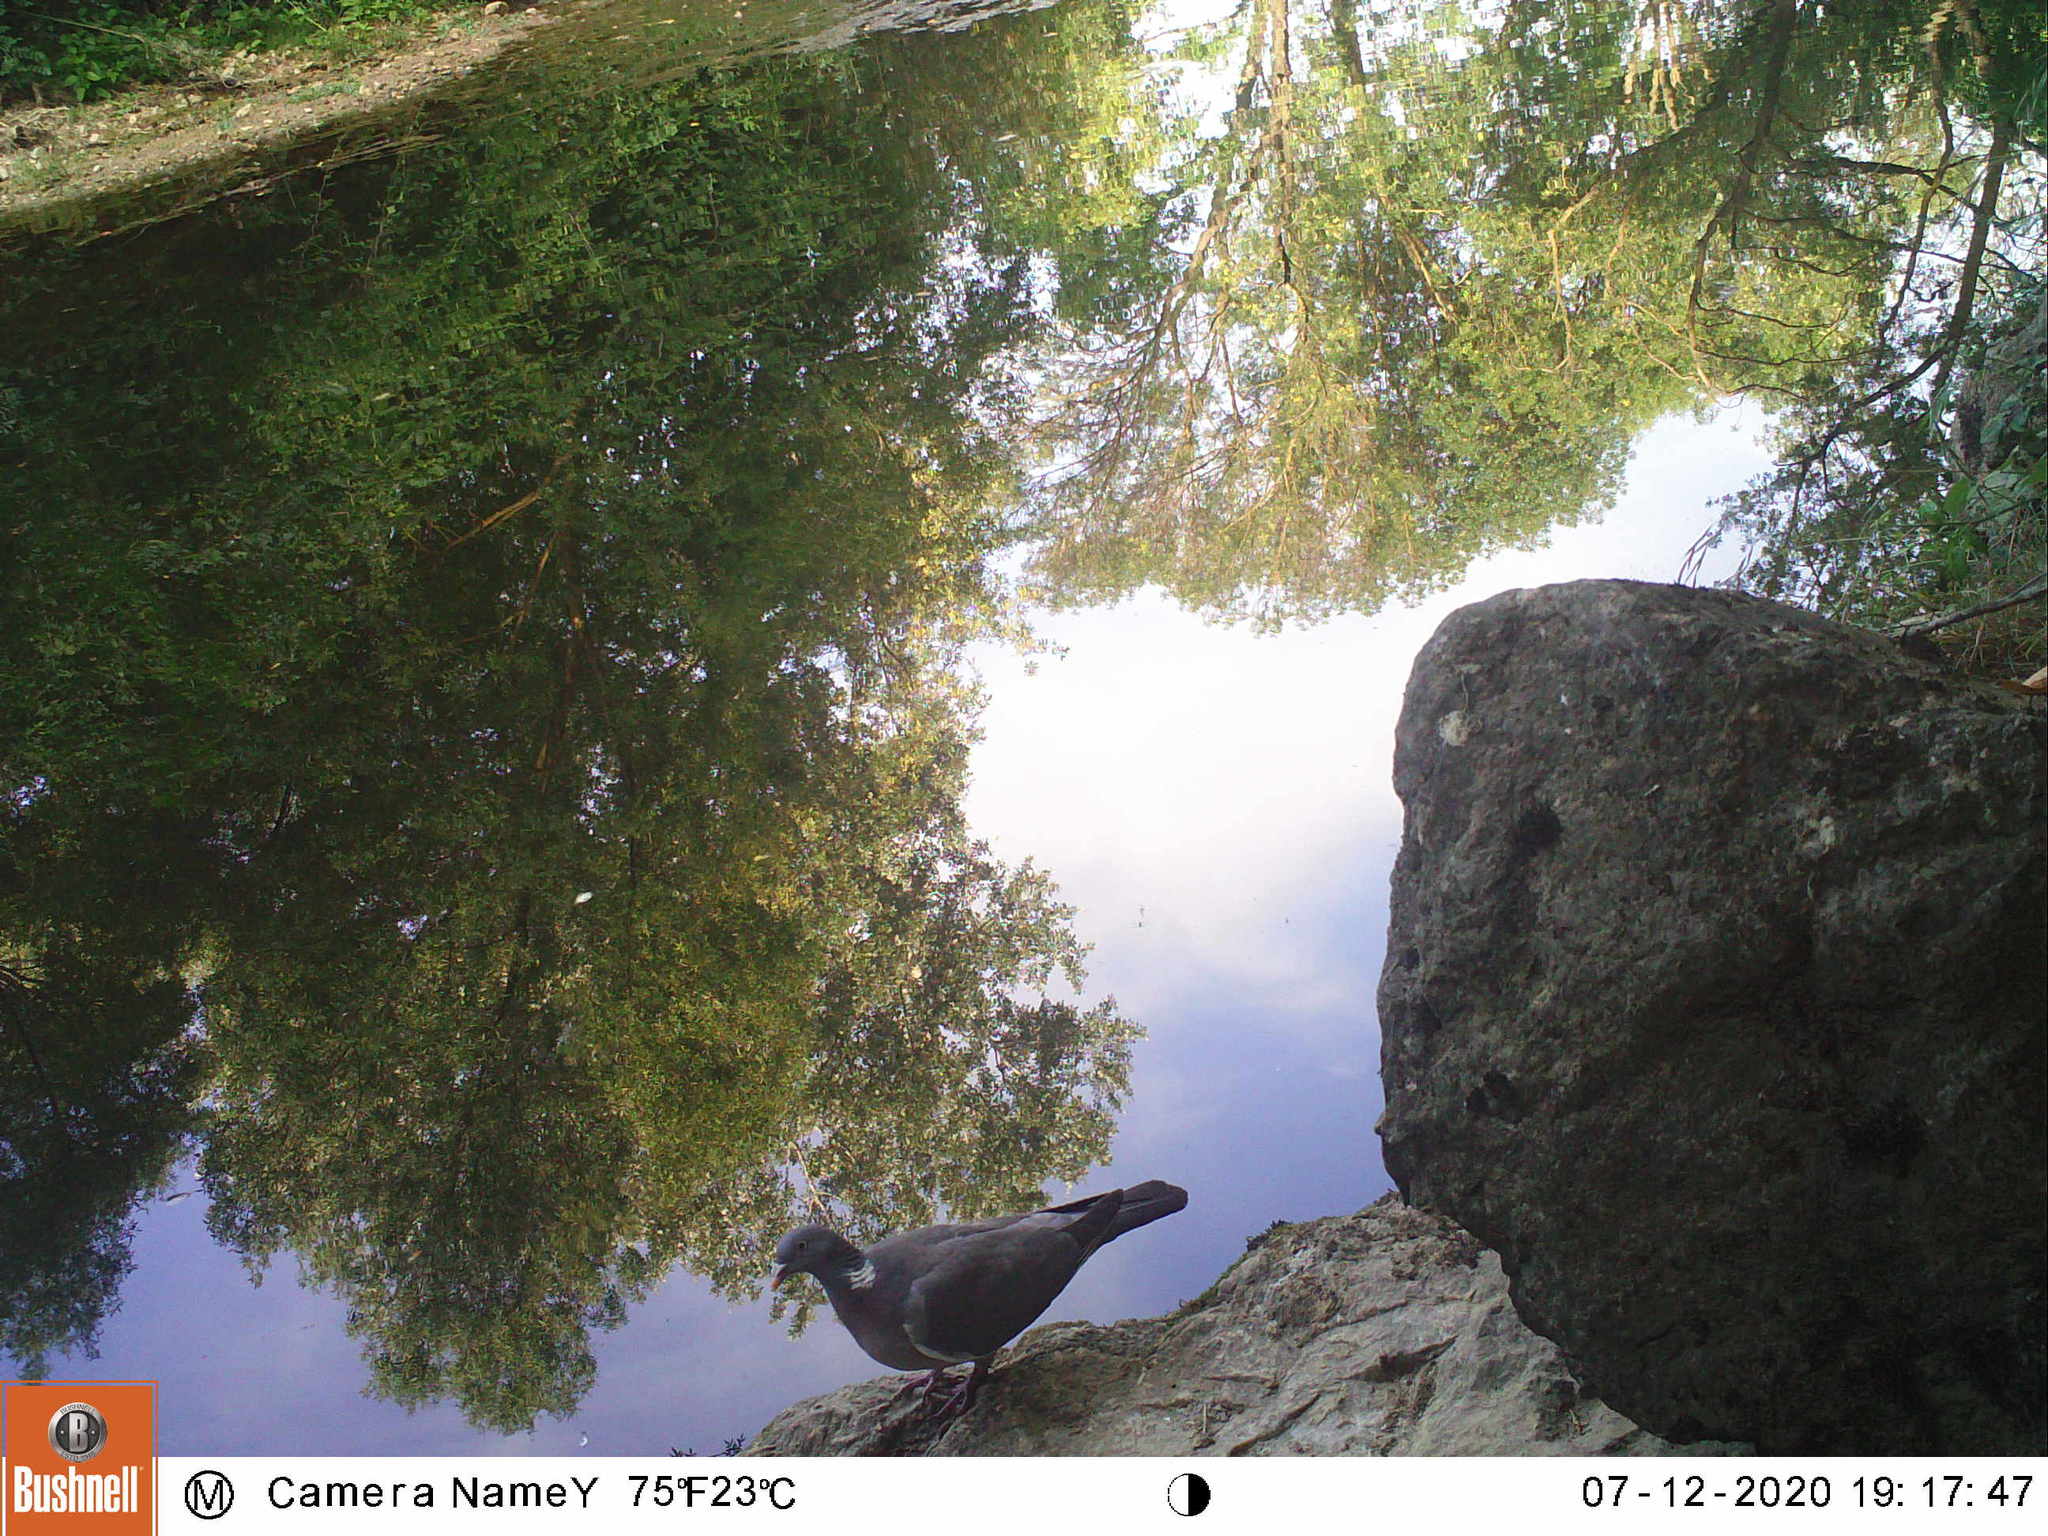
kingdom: Animalia
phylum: Chordata
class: Aves
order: Columbiformes
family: Columbidae
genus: Columba
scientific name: Columba palumbus
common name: Common wood pigeon
